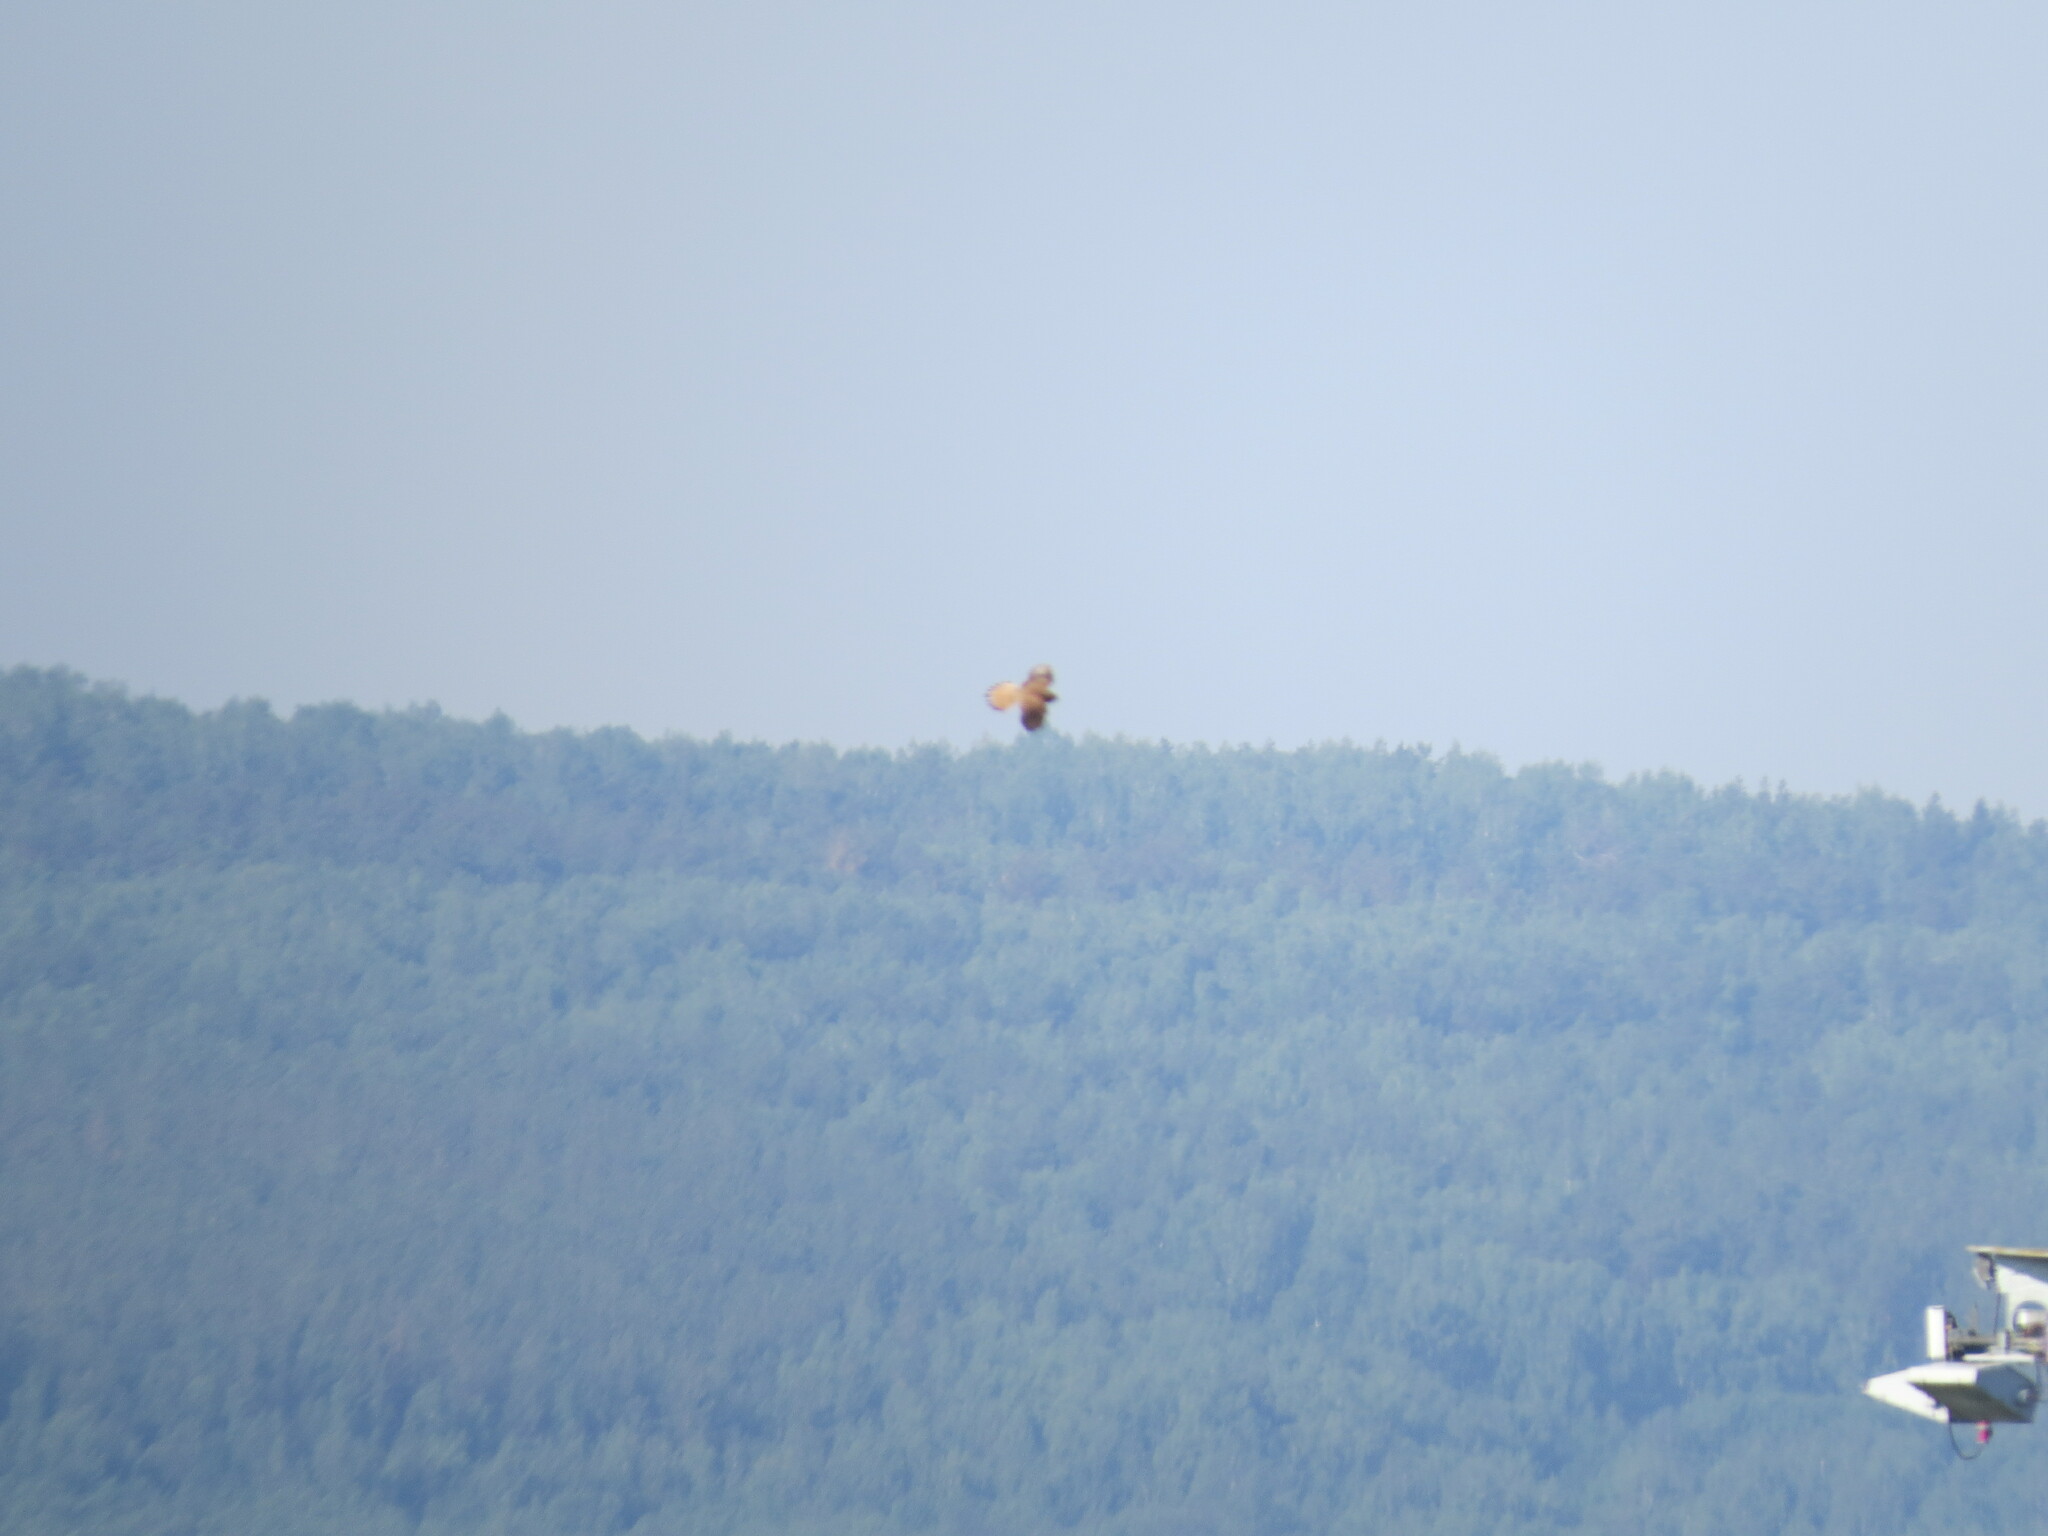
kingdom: Animalia
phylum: Chordata
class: Aves
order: Falconiformes
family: Falconidae
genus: Falco
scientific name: Falco tinnunculus
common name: Common kestrel
